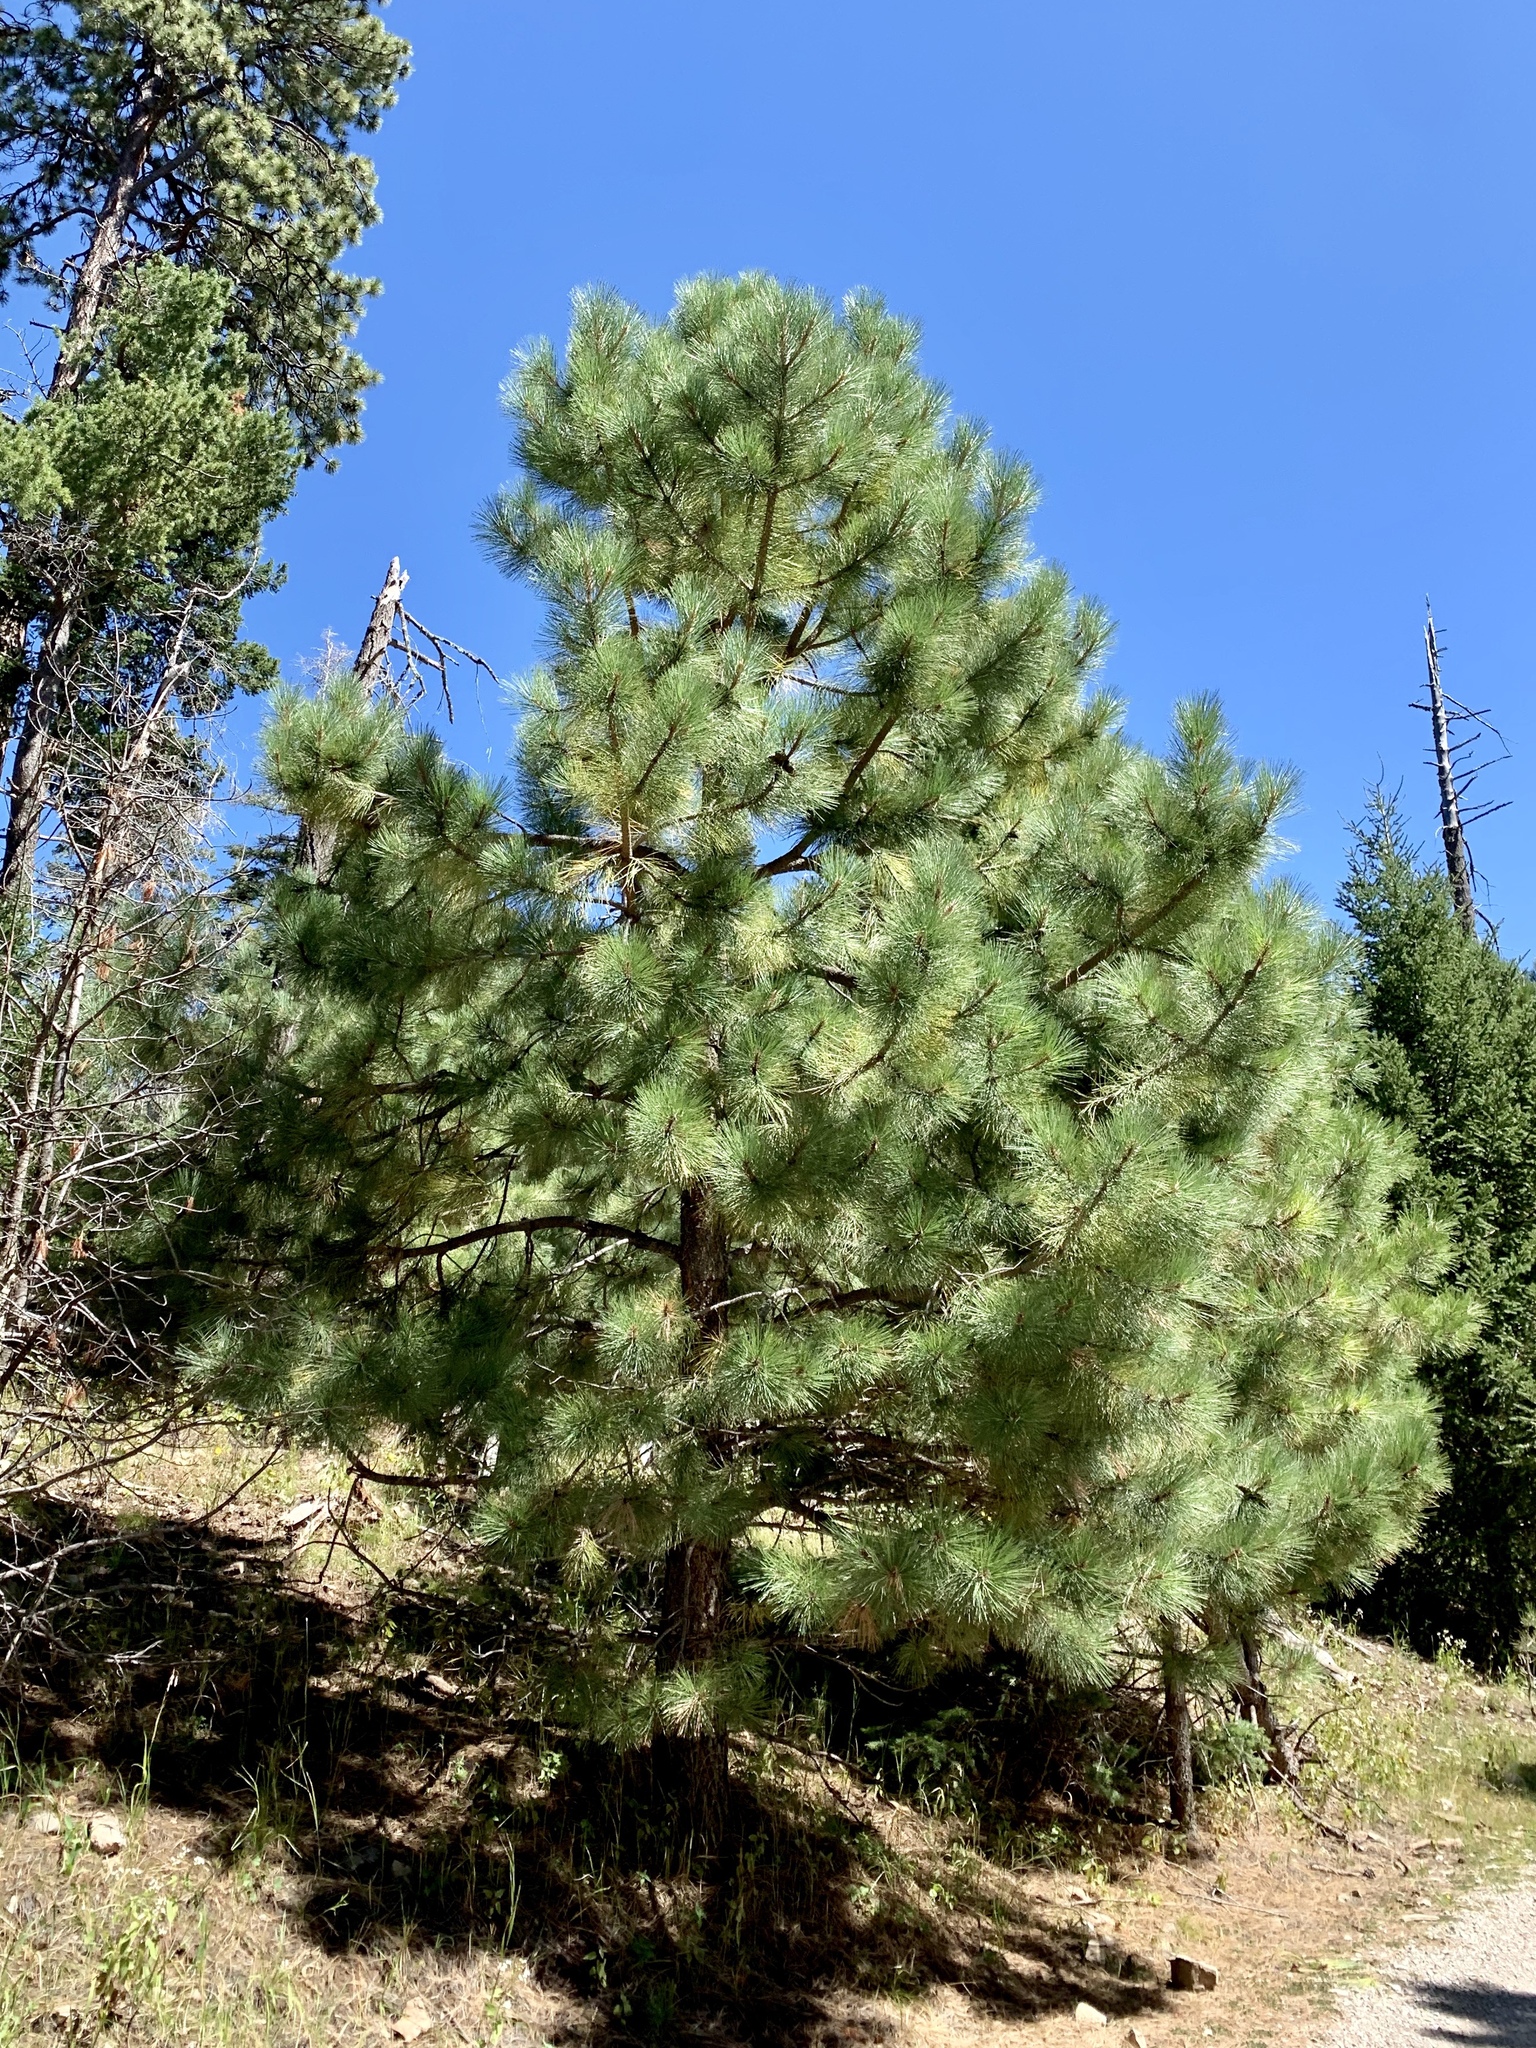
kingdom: Plantae
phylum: Tracheophyta
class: Pinopsida
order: Pinales
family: Pinaceae
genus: Pinus
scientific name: Pinus ponderosa
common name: Western yellow-pine
